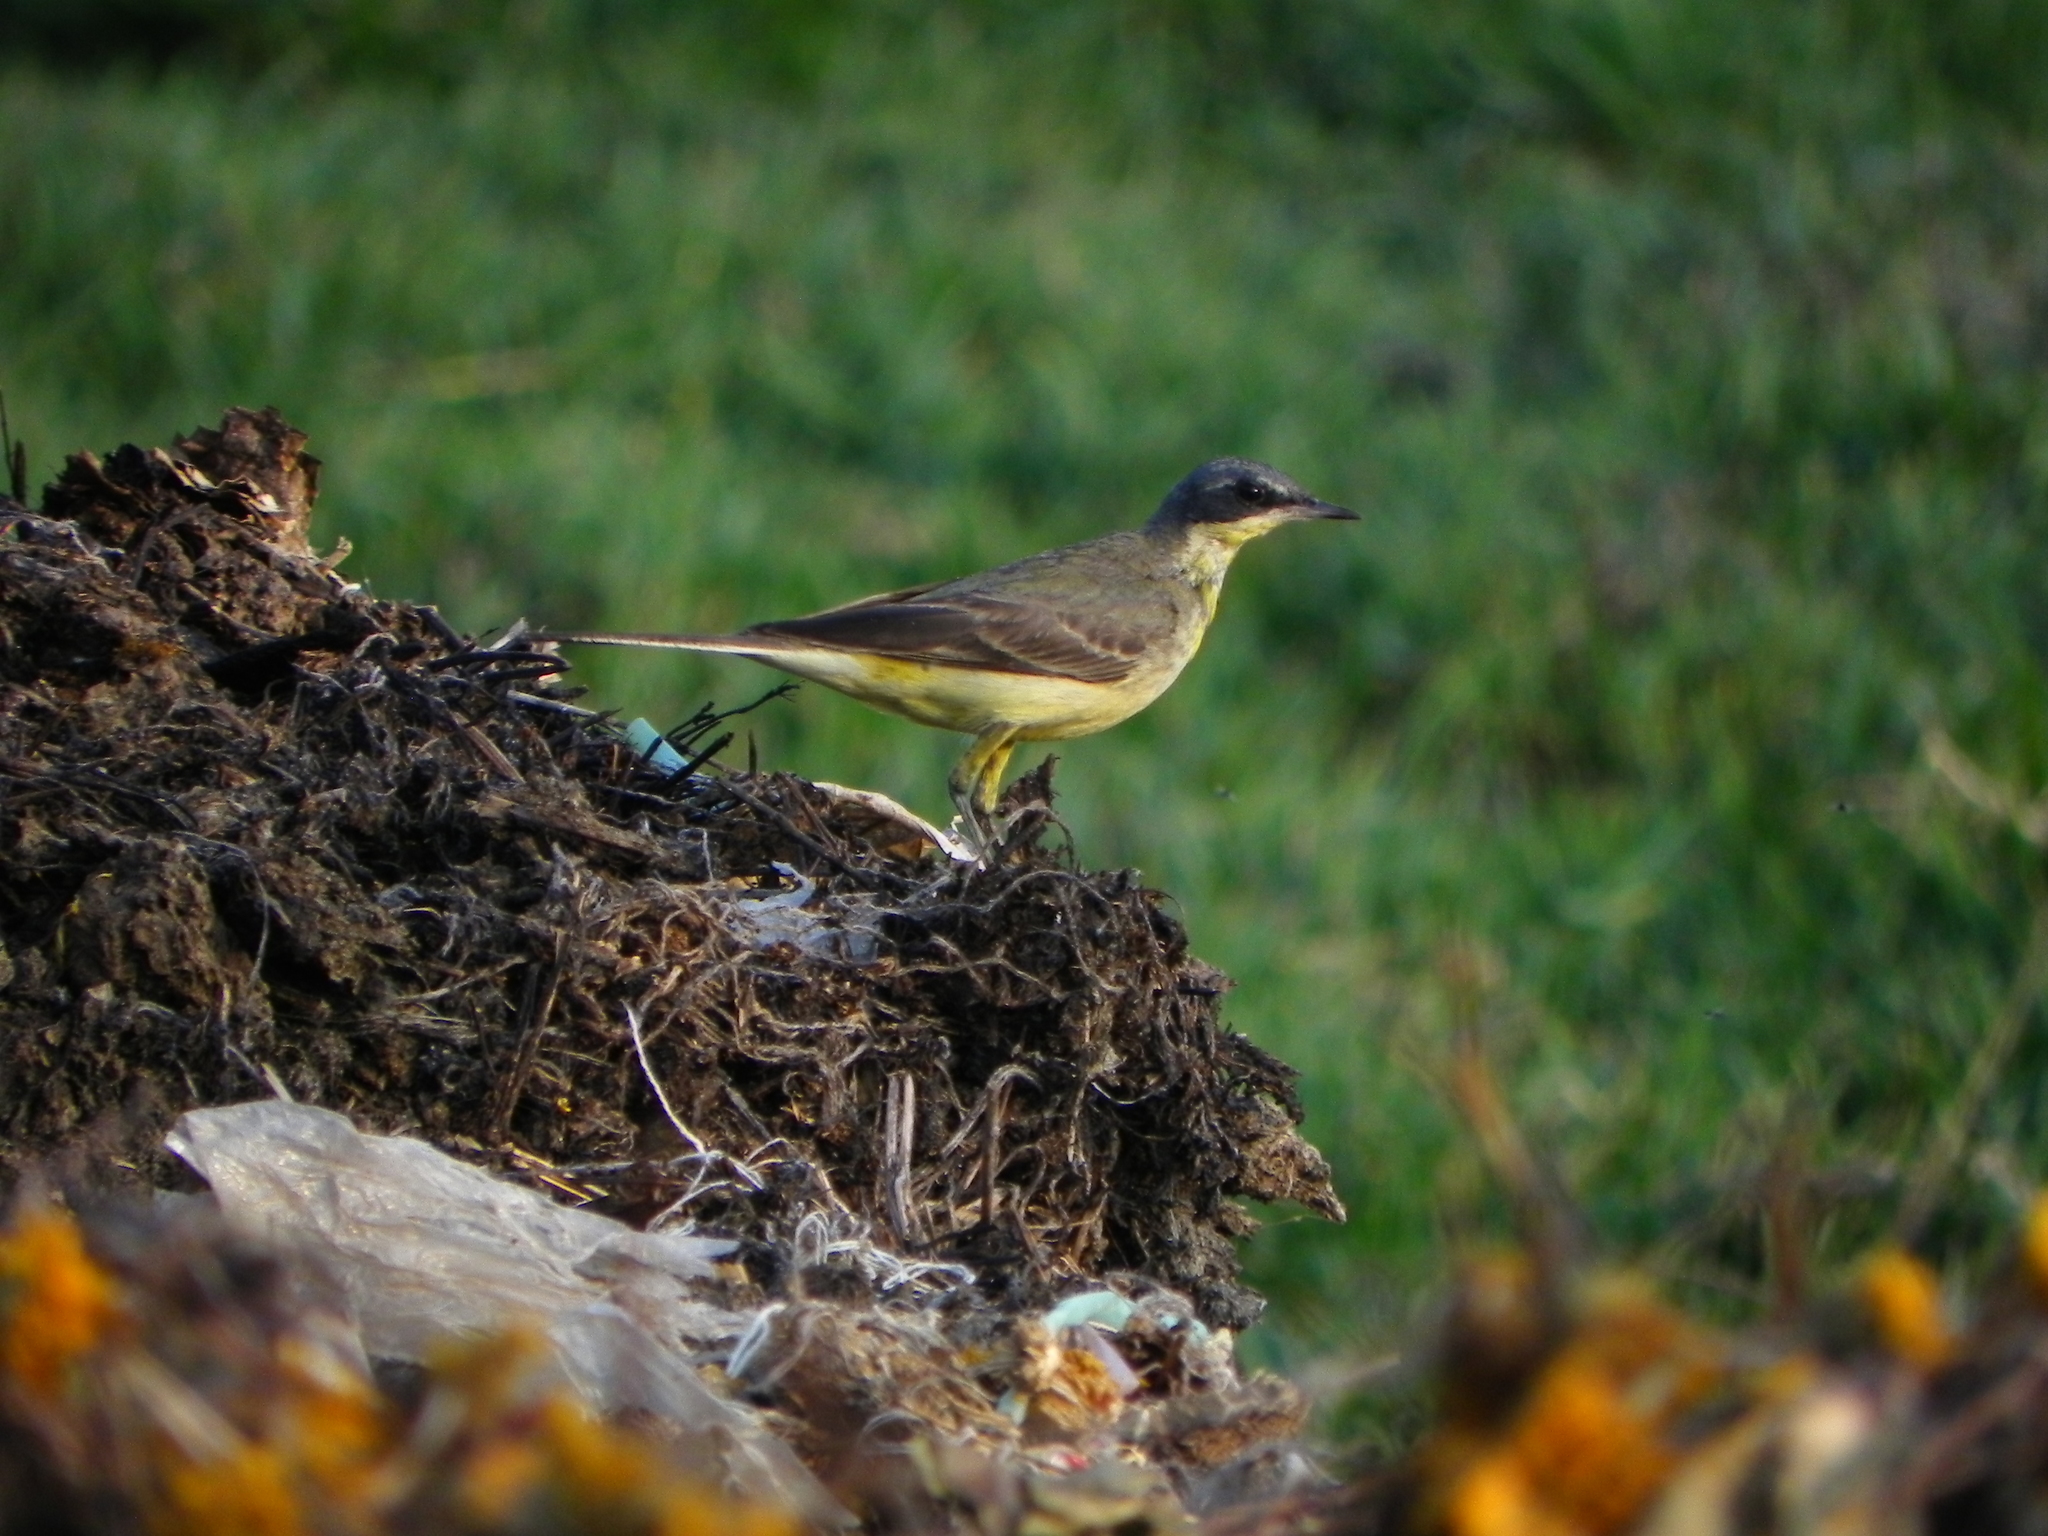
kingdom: Animalia
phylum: Chordata
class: Aves
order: Passeriformes
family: Motacillidae
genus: Motacilla
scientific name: Motacilla flava
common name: Western yellow wagtail
